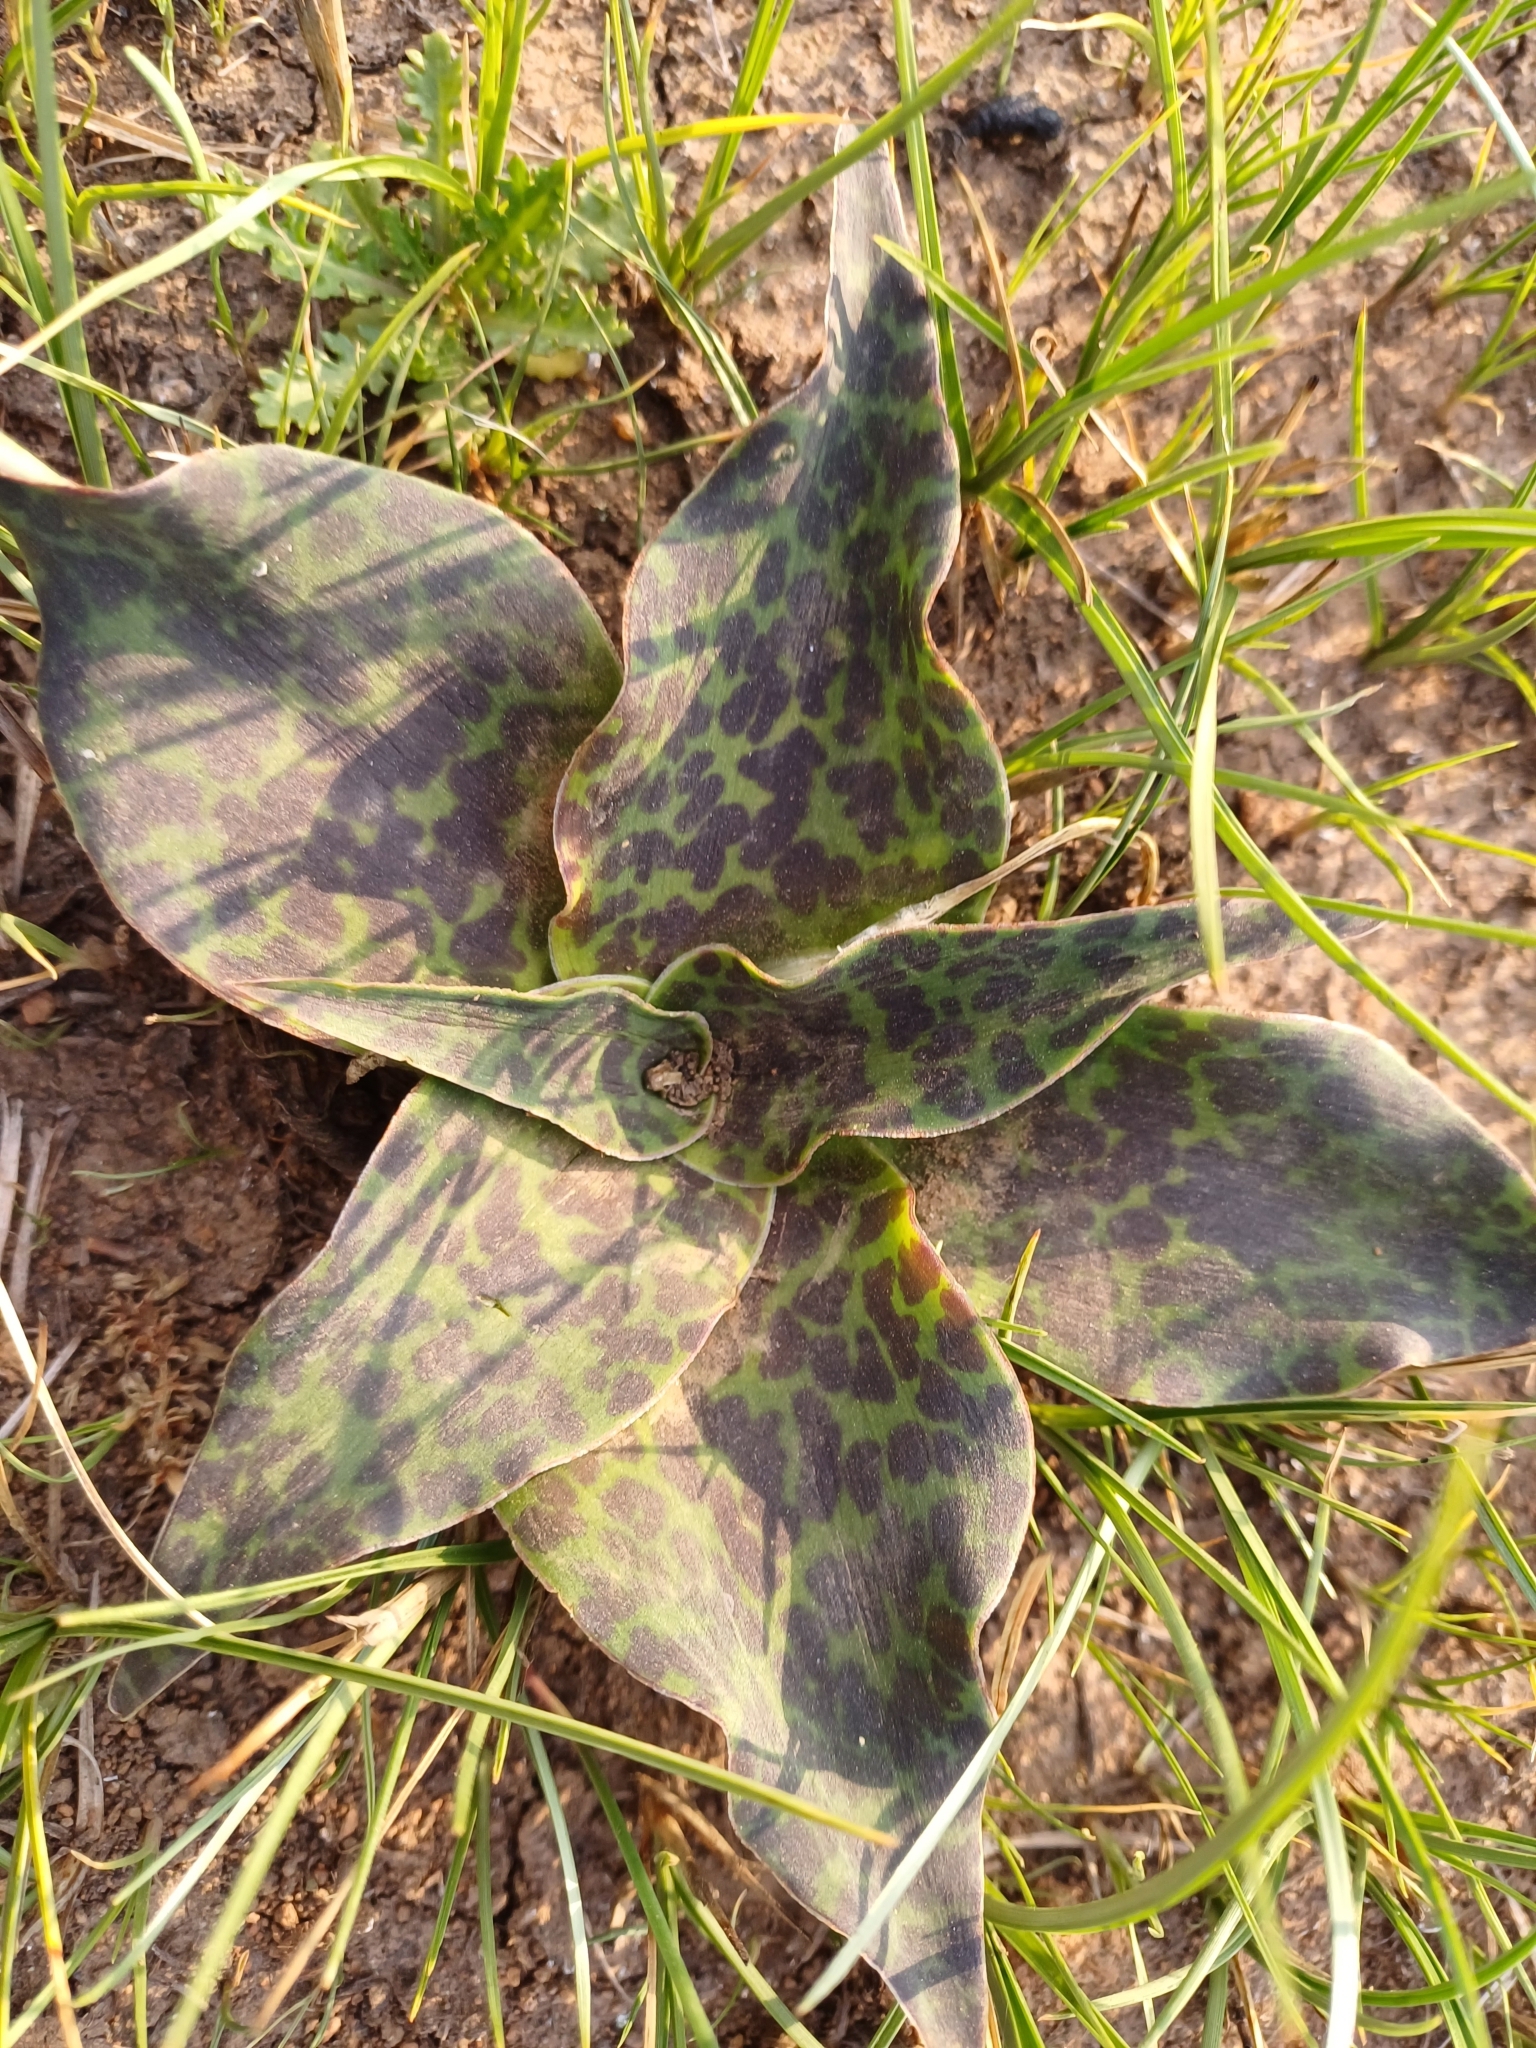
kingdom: Plantae
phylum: Tracheophyta
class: Liliopsida
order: Asparagales
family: Asparagaceae
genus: Ledebouria
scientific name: Ledebouria ovatifolia
